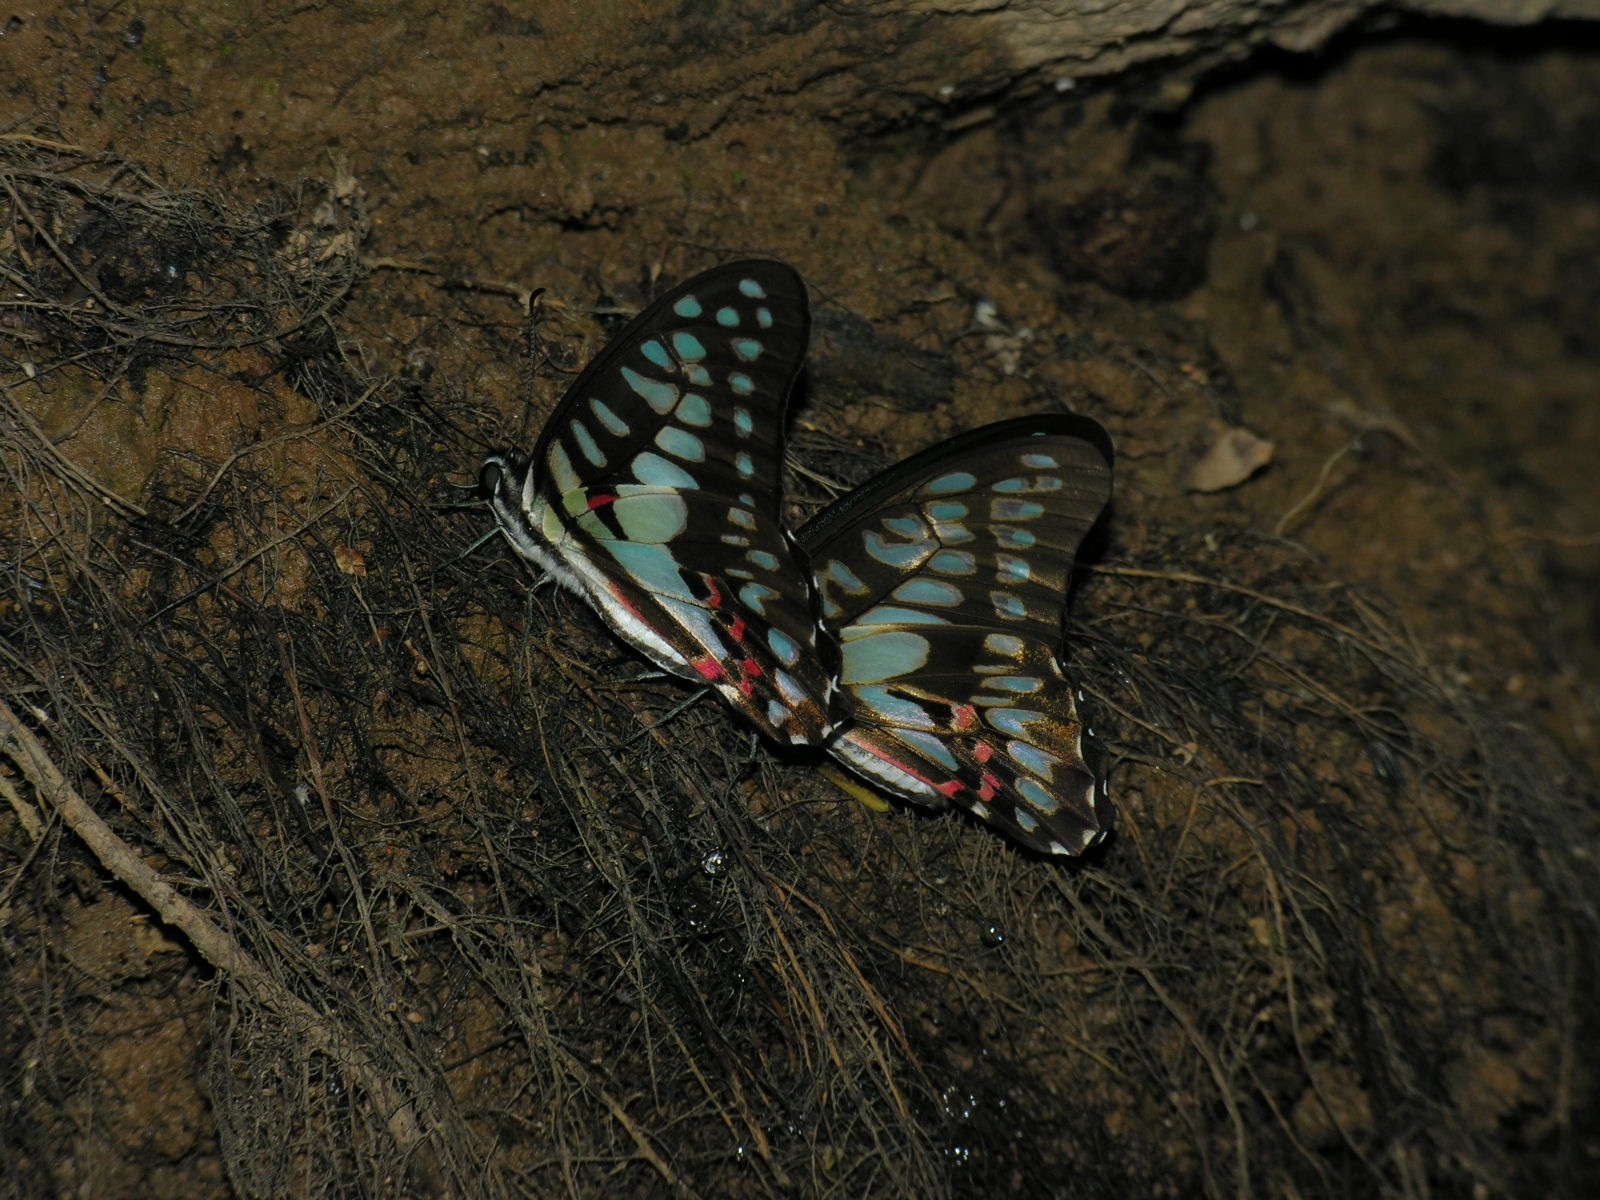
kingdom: Animalia
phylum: Arthropoda
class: Insecta
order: Lepidoptera
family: Papilionidae
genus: Graphium
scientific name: Graphium doson
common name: Common jay
